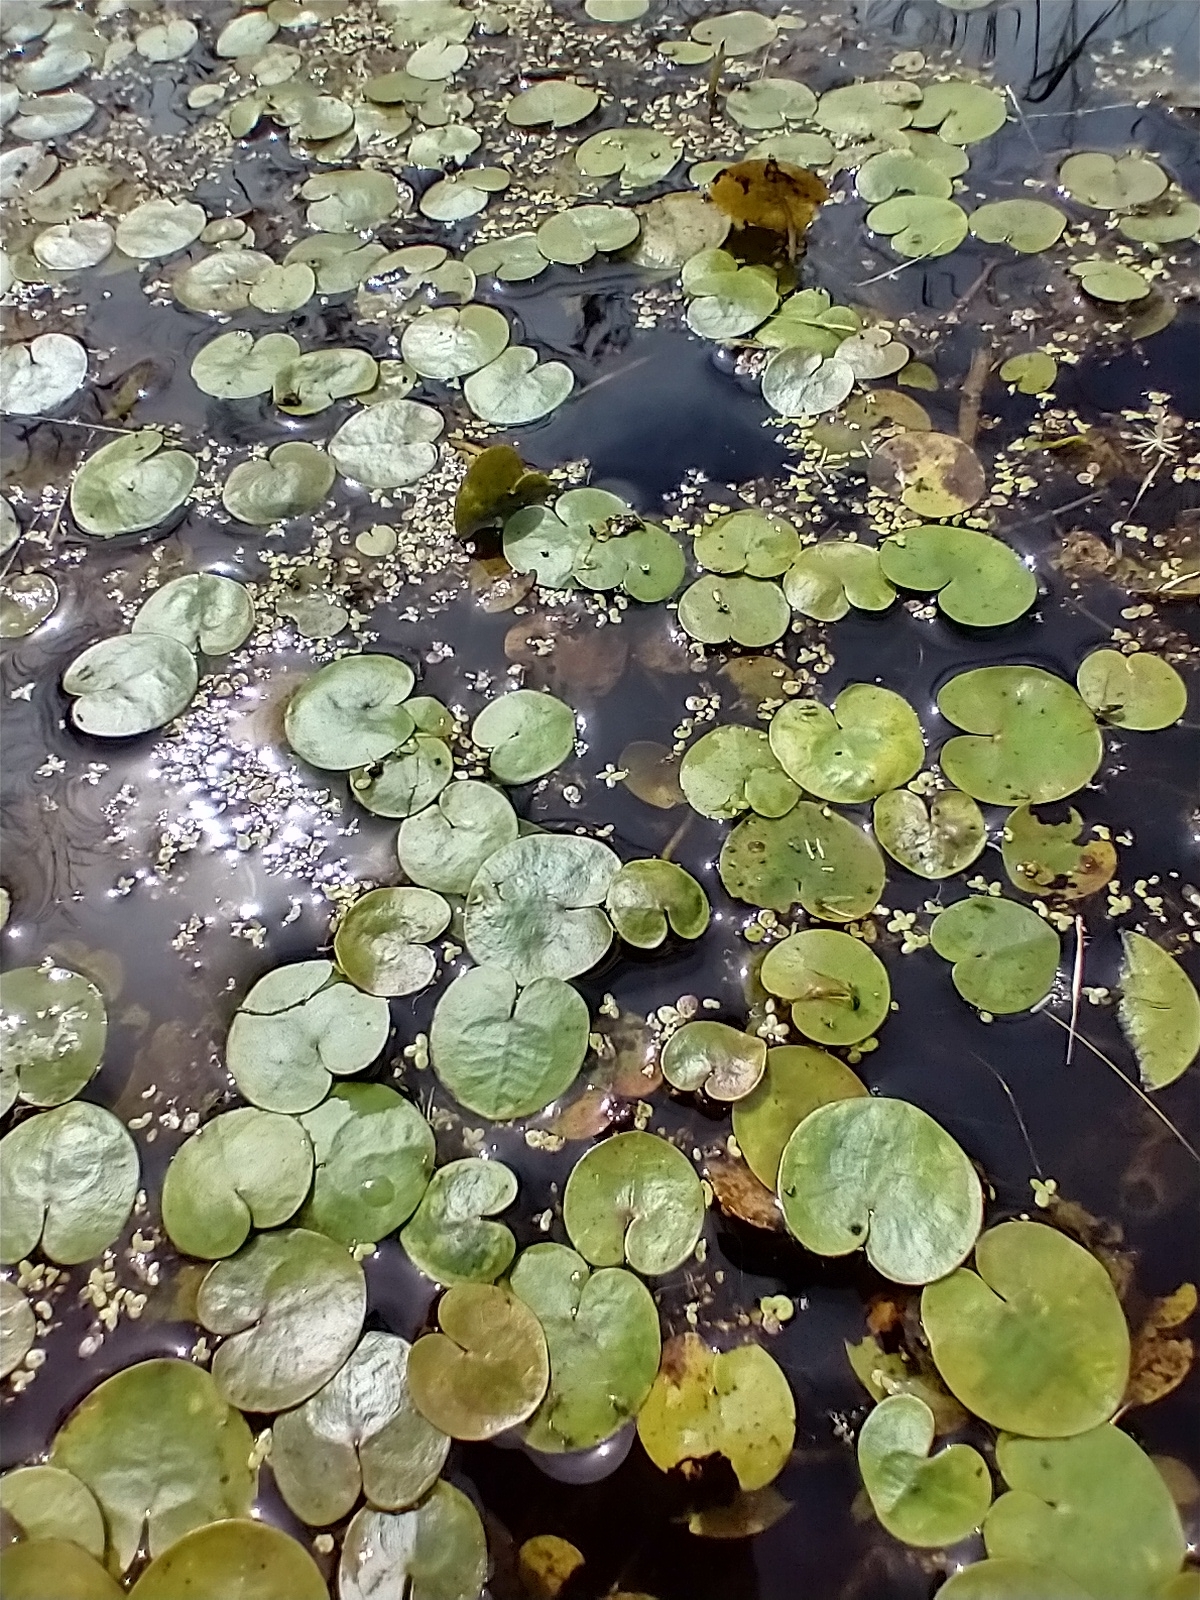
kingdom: Plantae
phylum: Tracheophyta
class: Liliopsida
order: Alismatales
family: Hydrocharitaceae
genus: Hydrocharis
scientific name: Hydrocharis morsus-ranae
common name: Frogbit
